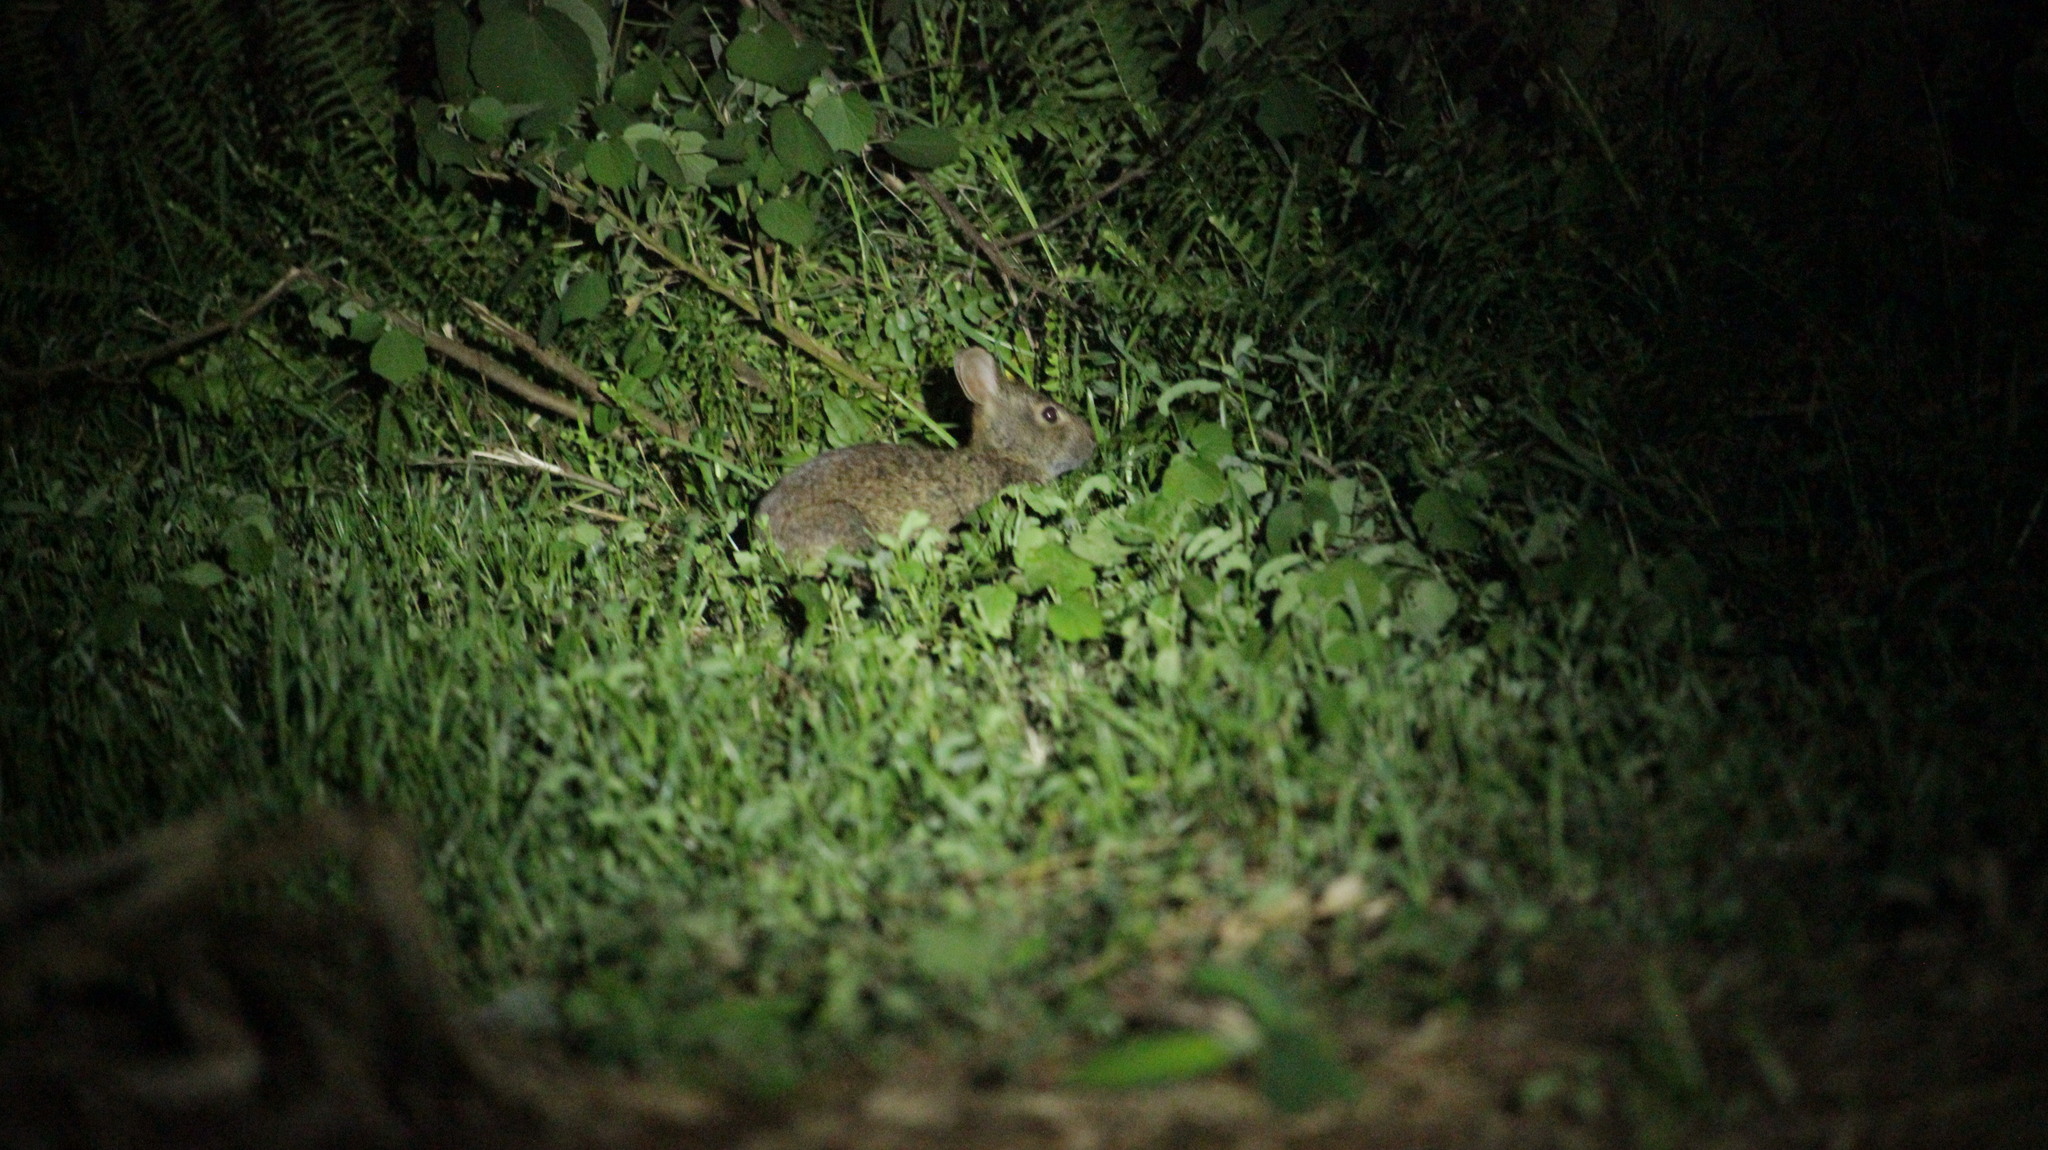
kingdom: Animalia
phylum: Chordata
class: Mammalia
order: Lagomorpha
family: Leporidae
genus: Sylvilagus
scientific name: Sylvilagus palustris
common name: Marsh rabbit
